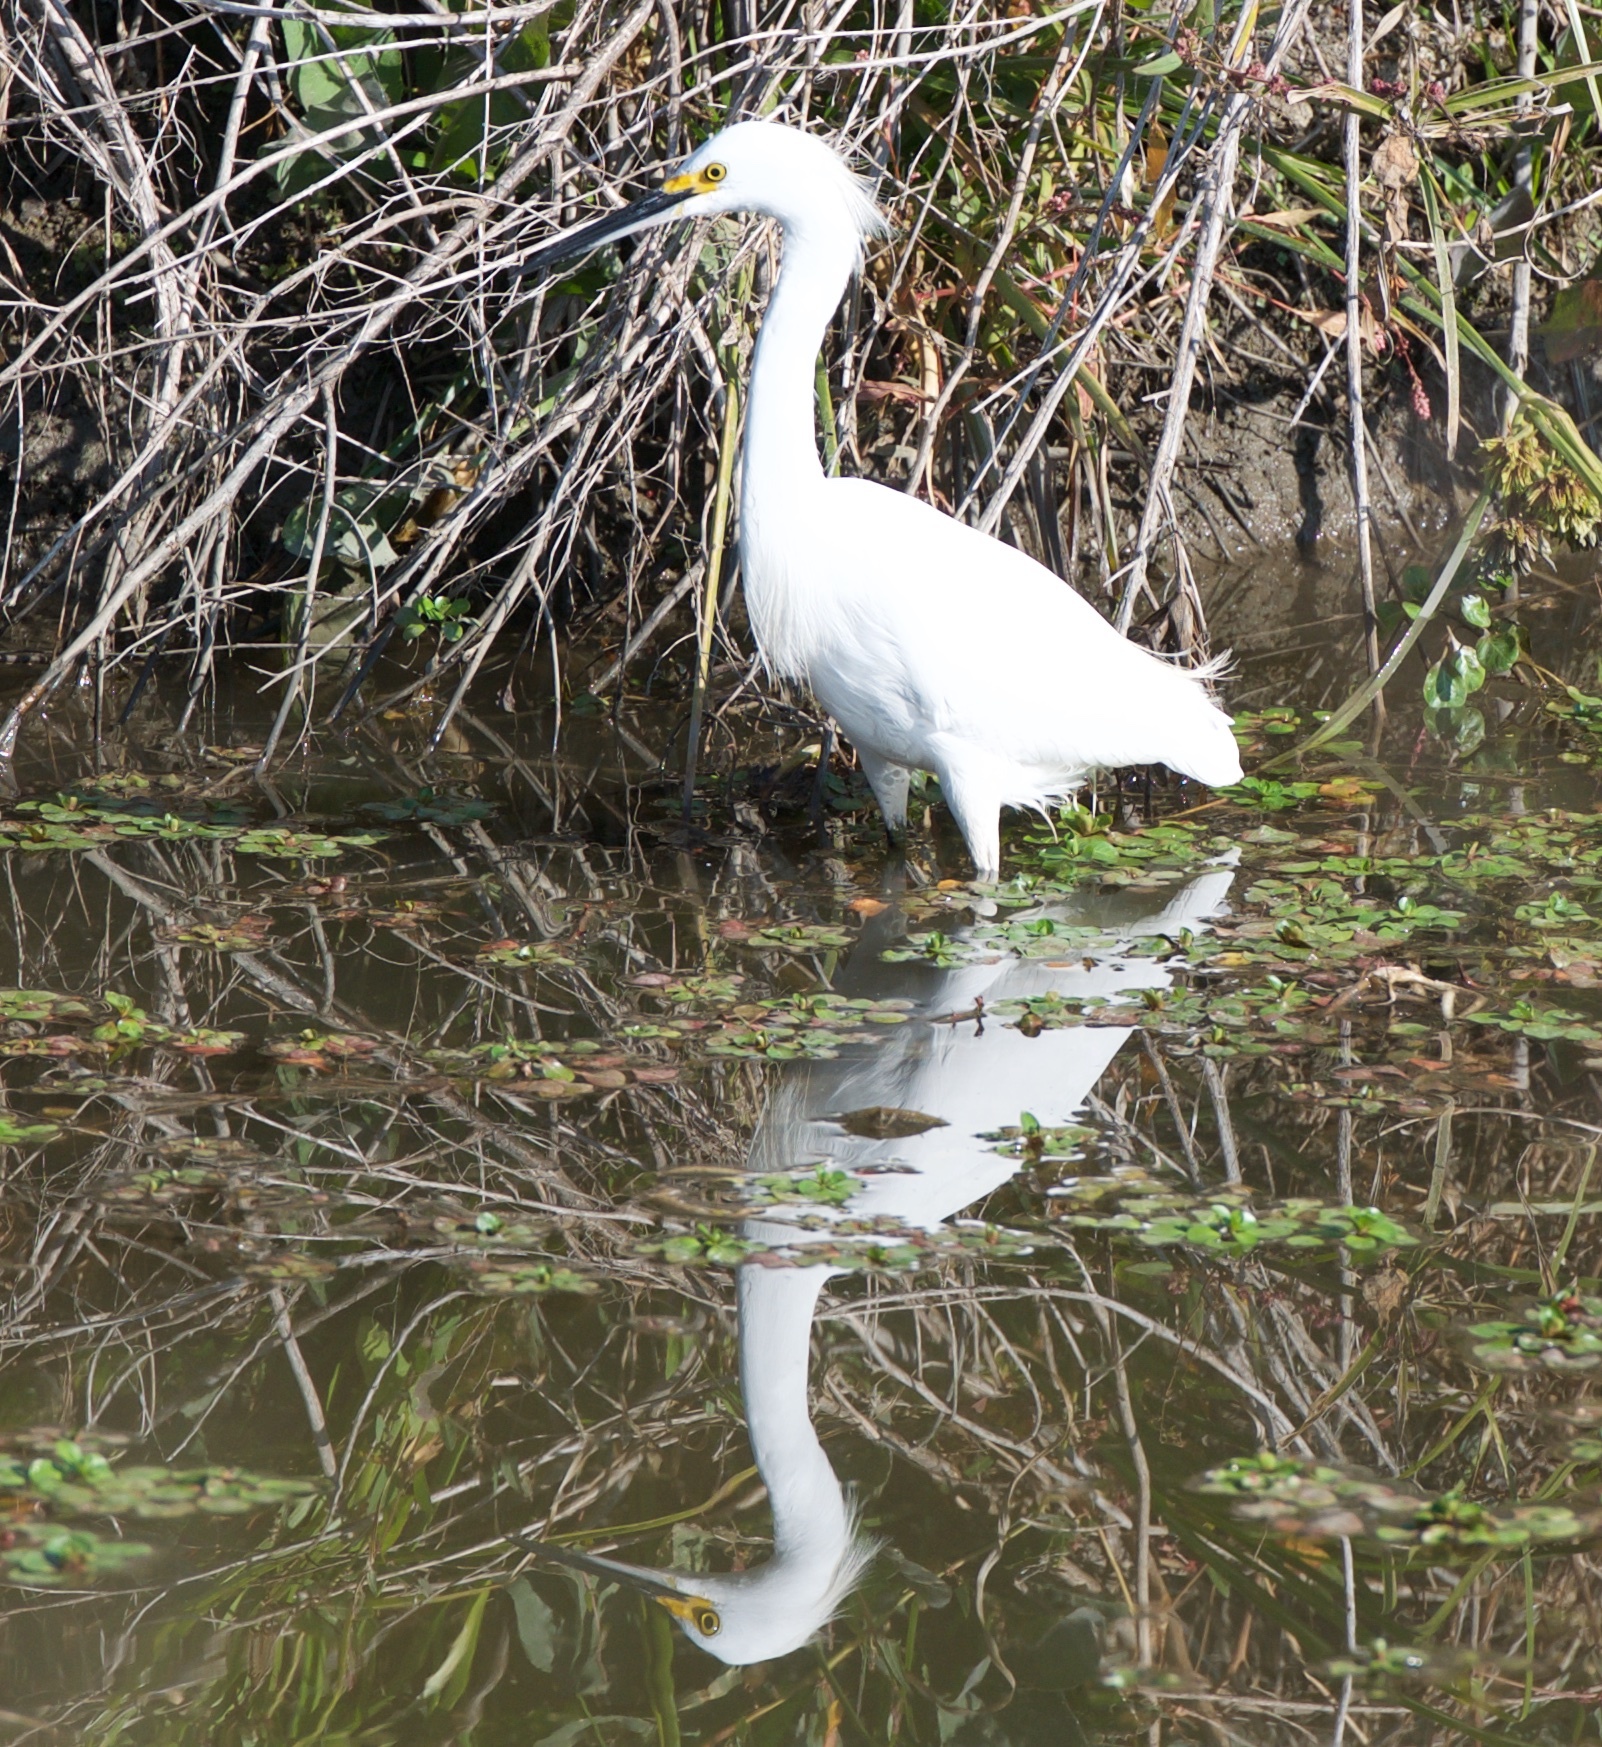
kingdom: Animalia
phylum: Chordata
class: Aves
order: Pelecaniformes
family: Ardeidae
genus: Egretta
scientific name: Egretta thula
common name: Snowy egret
